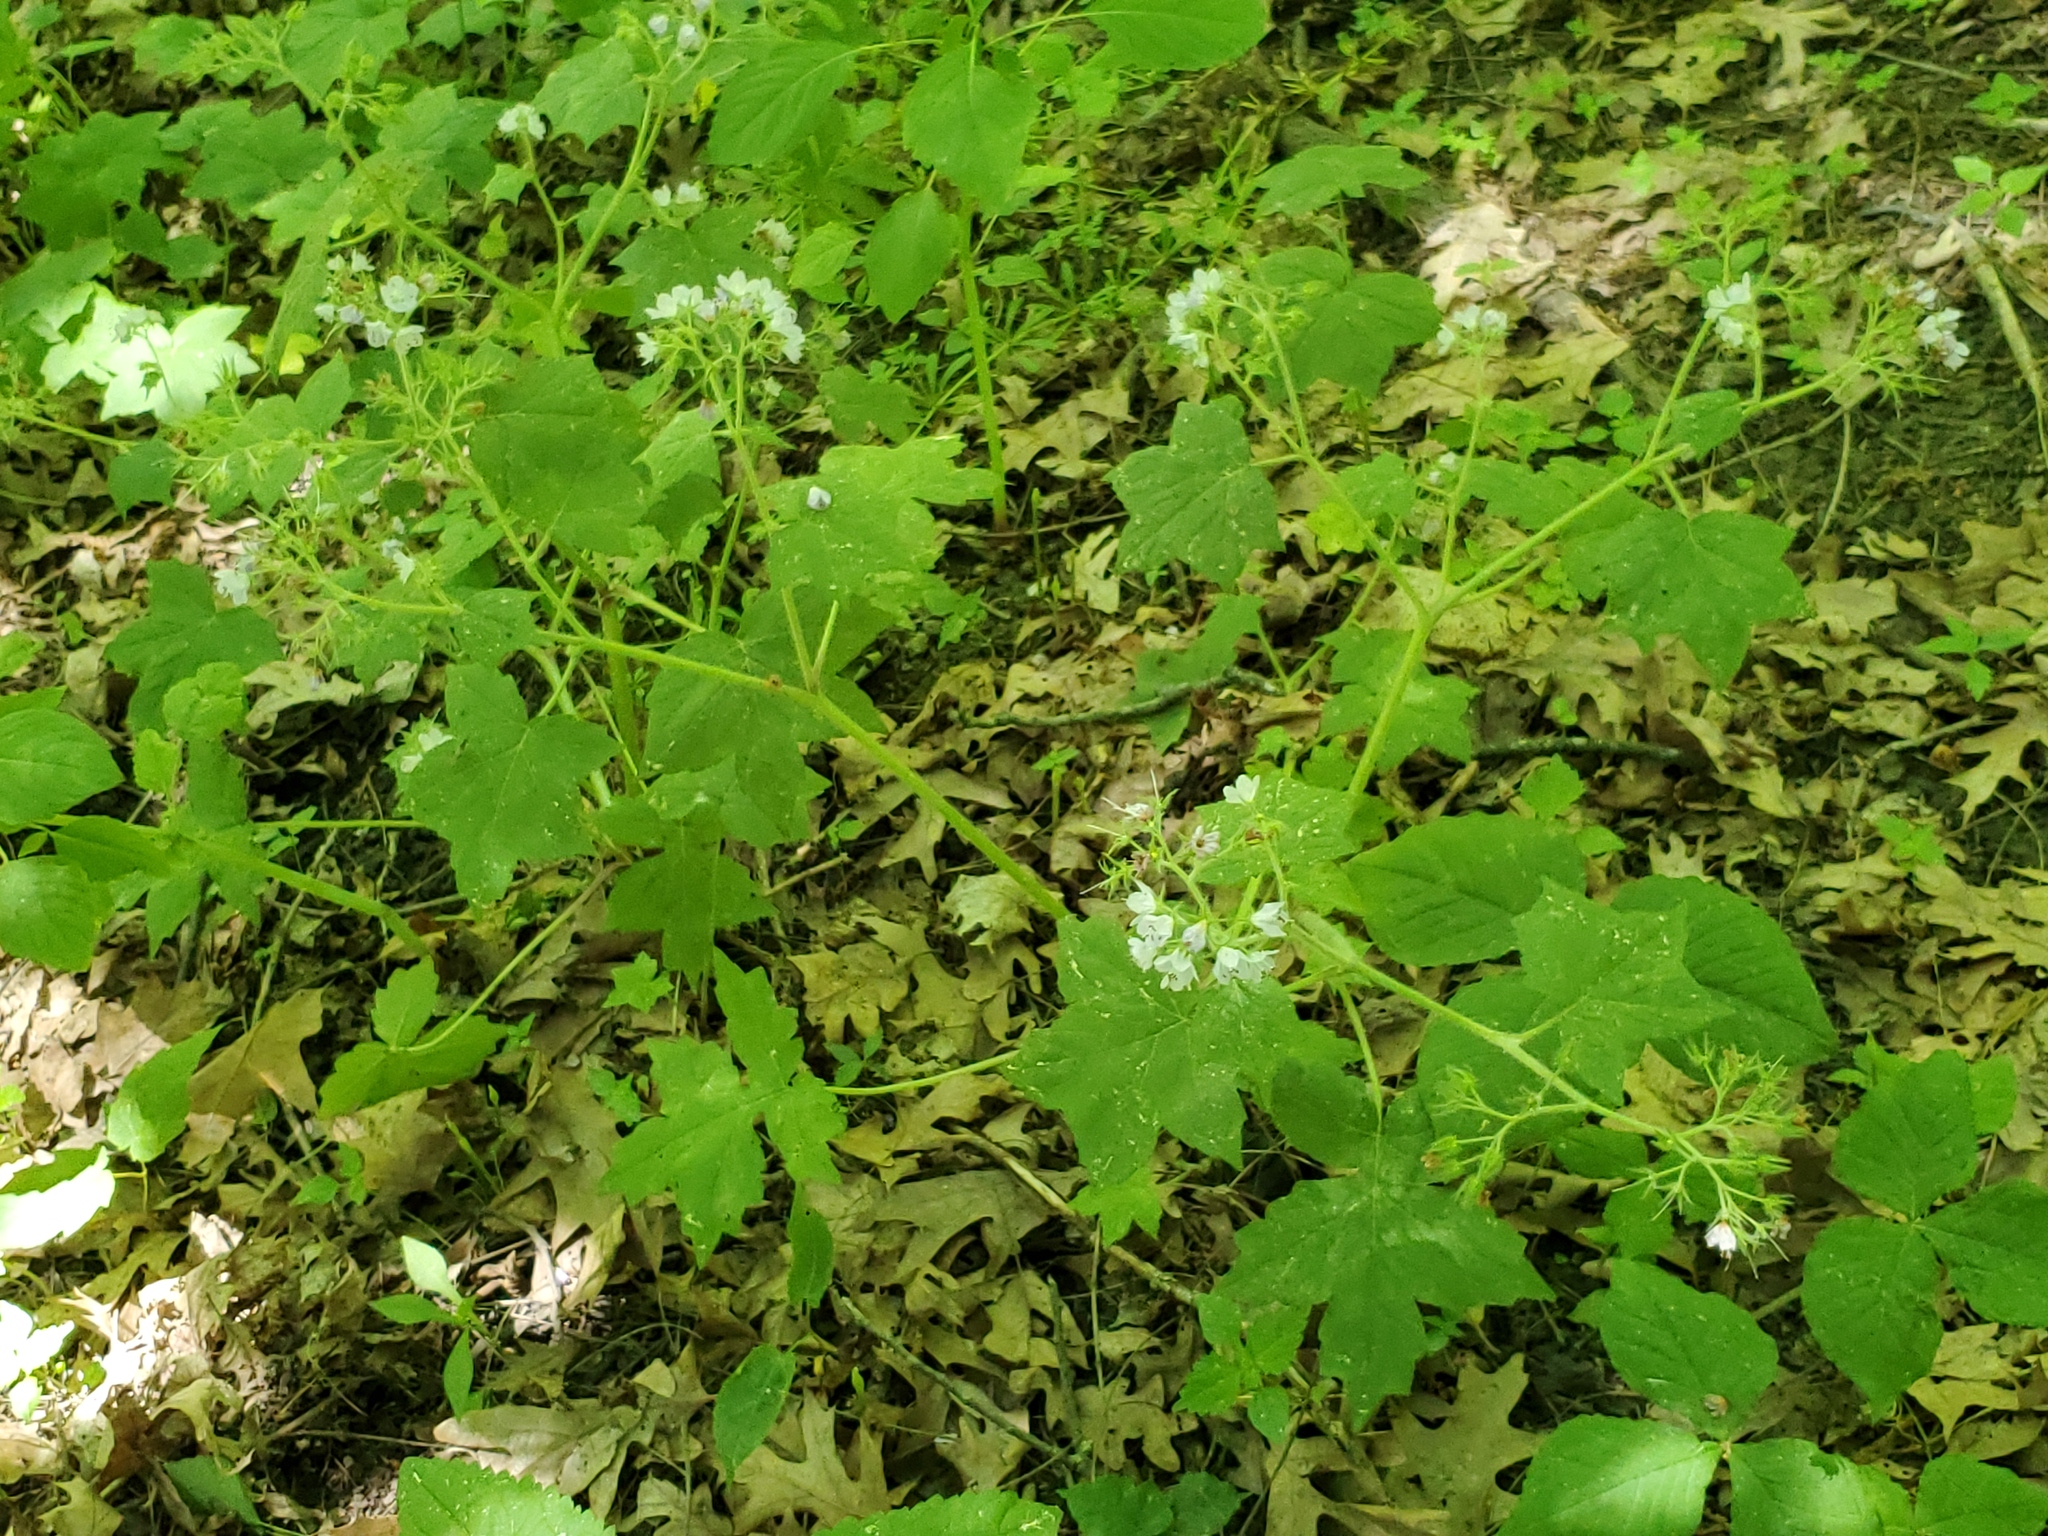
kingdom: Plantae
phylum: Tracheophyta
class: Magnoliopsida
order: Boraginales
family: Hydrophyllaceae
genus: Hydrophyllum
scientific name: Hydrophyllum appendiculatum
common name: Appendaged waterleaf
